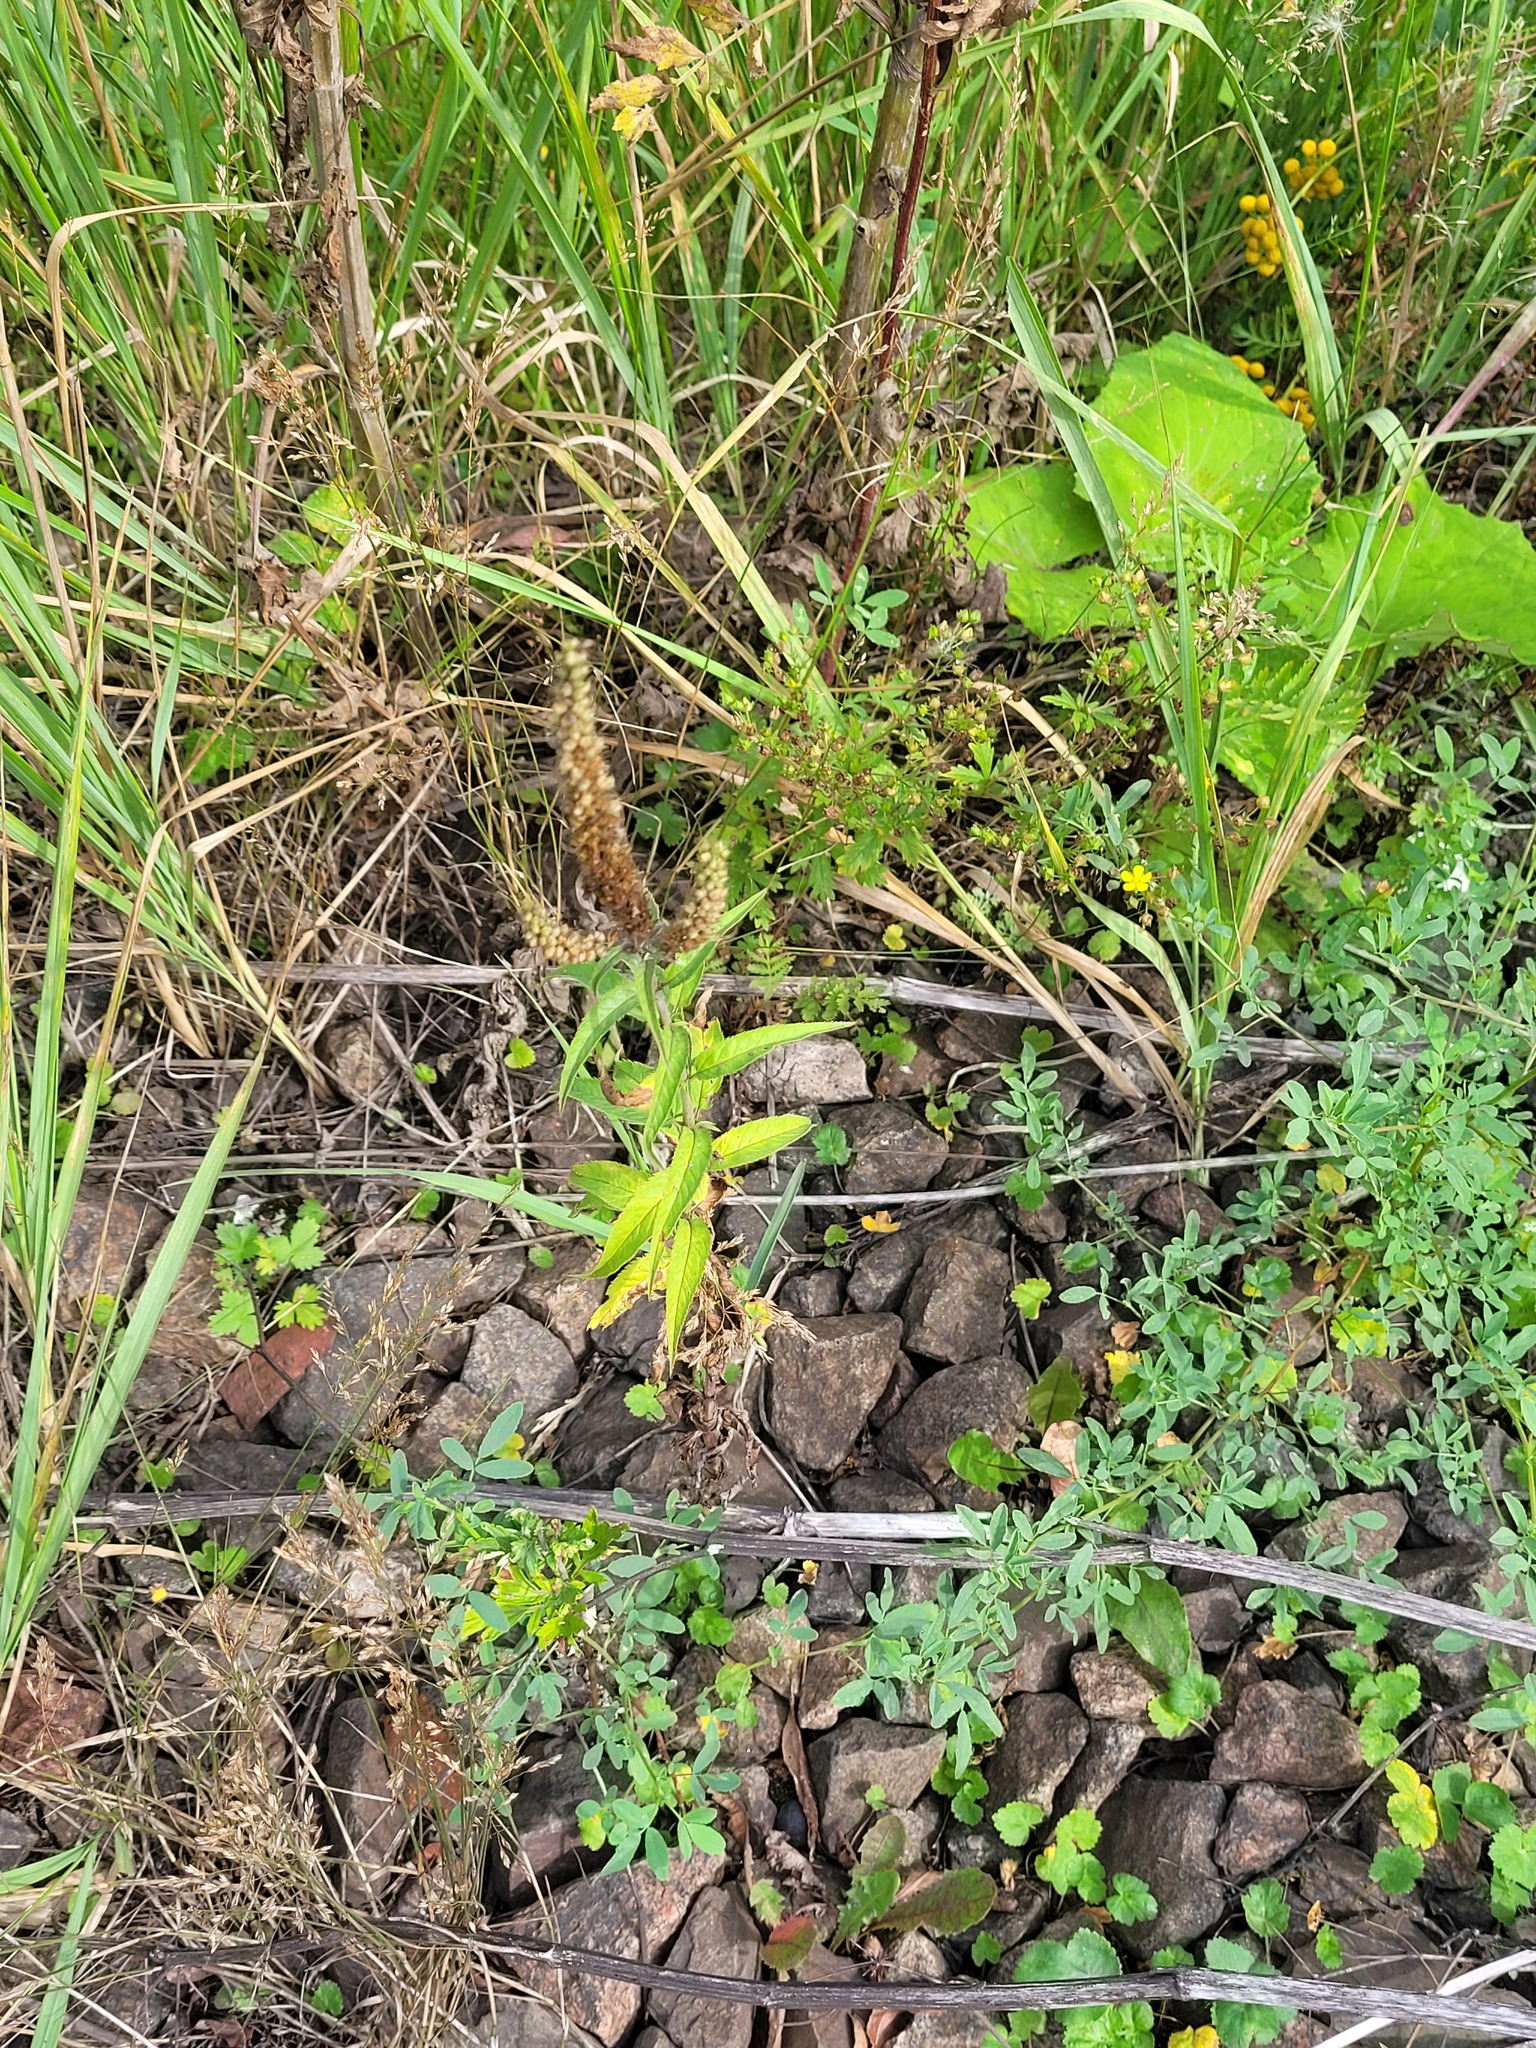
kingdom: Plantae
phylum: Tracheophyta
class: Magnoliopsida
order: Lamiales
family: Plantaginaceae
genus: Veronica
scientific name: Veronica longifolia
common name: Garden speedwell
